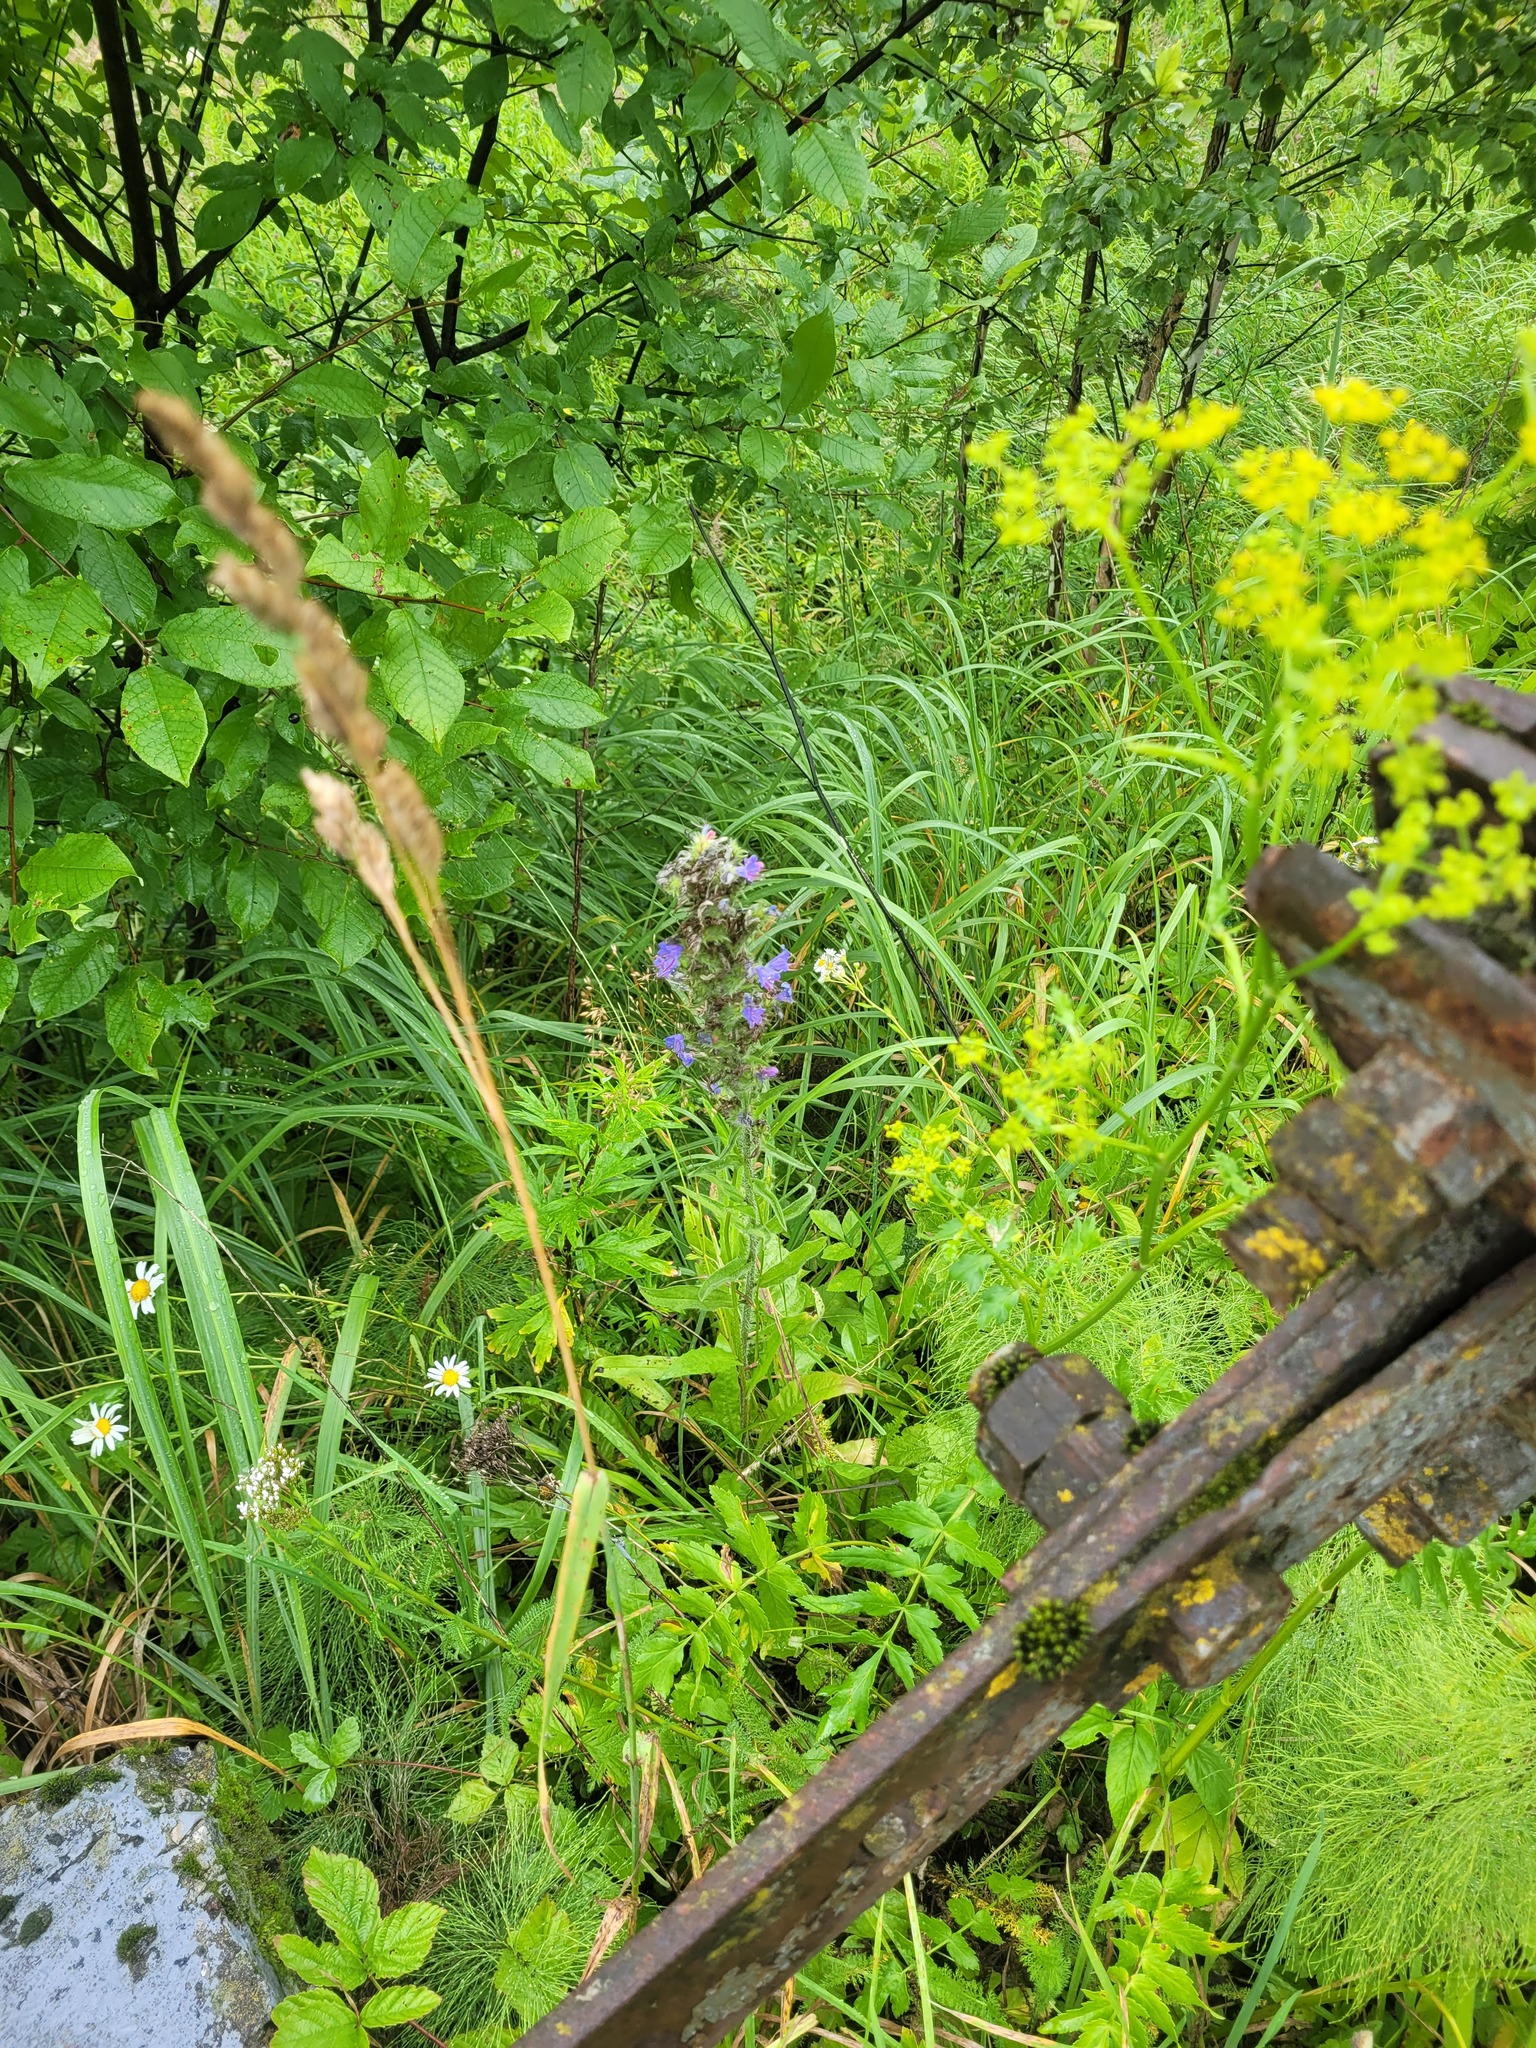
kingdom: Plantae
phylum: Tracheophyta
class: Magnoliopsida
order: Boraginales
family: Boraginaceae
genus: Echium
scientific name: Echium vulgare
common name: Common viper's bugloss
